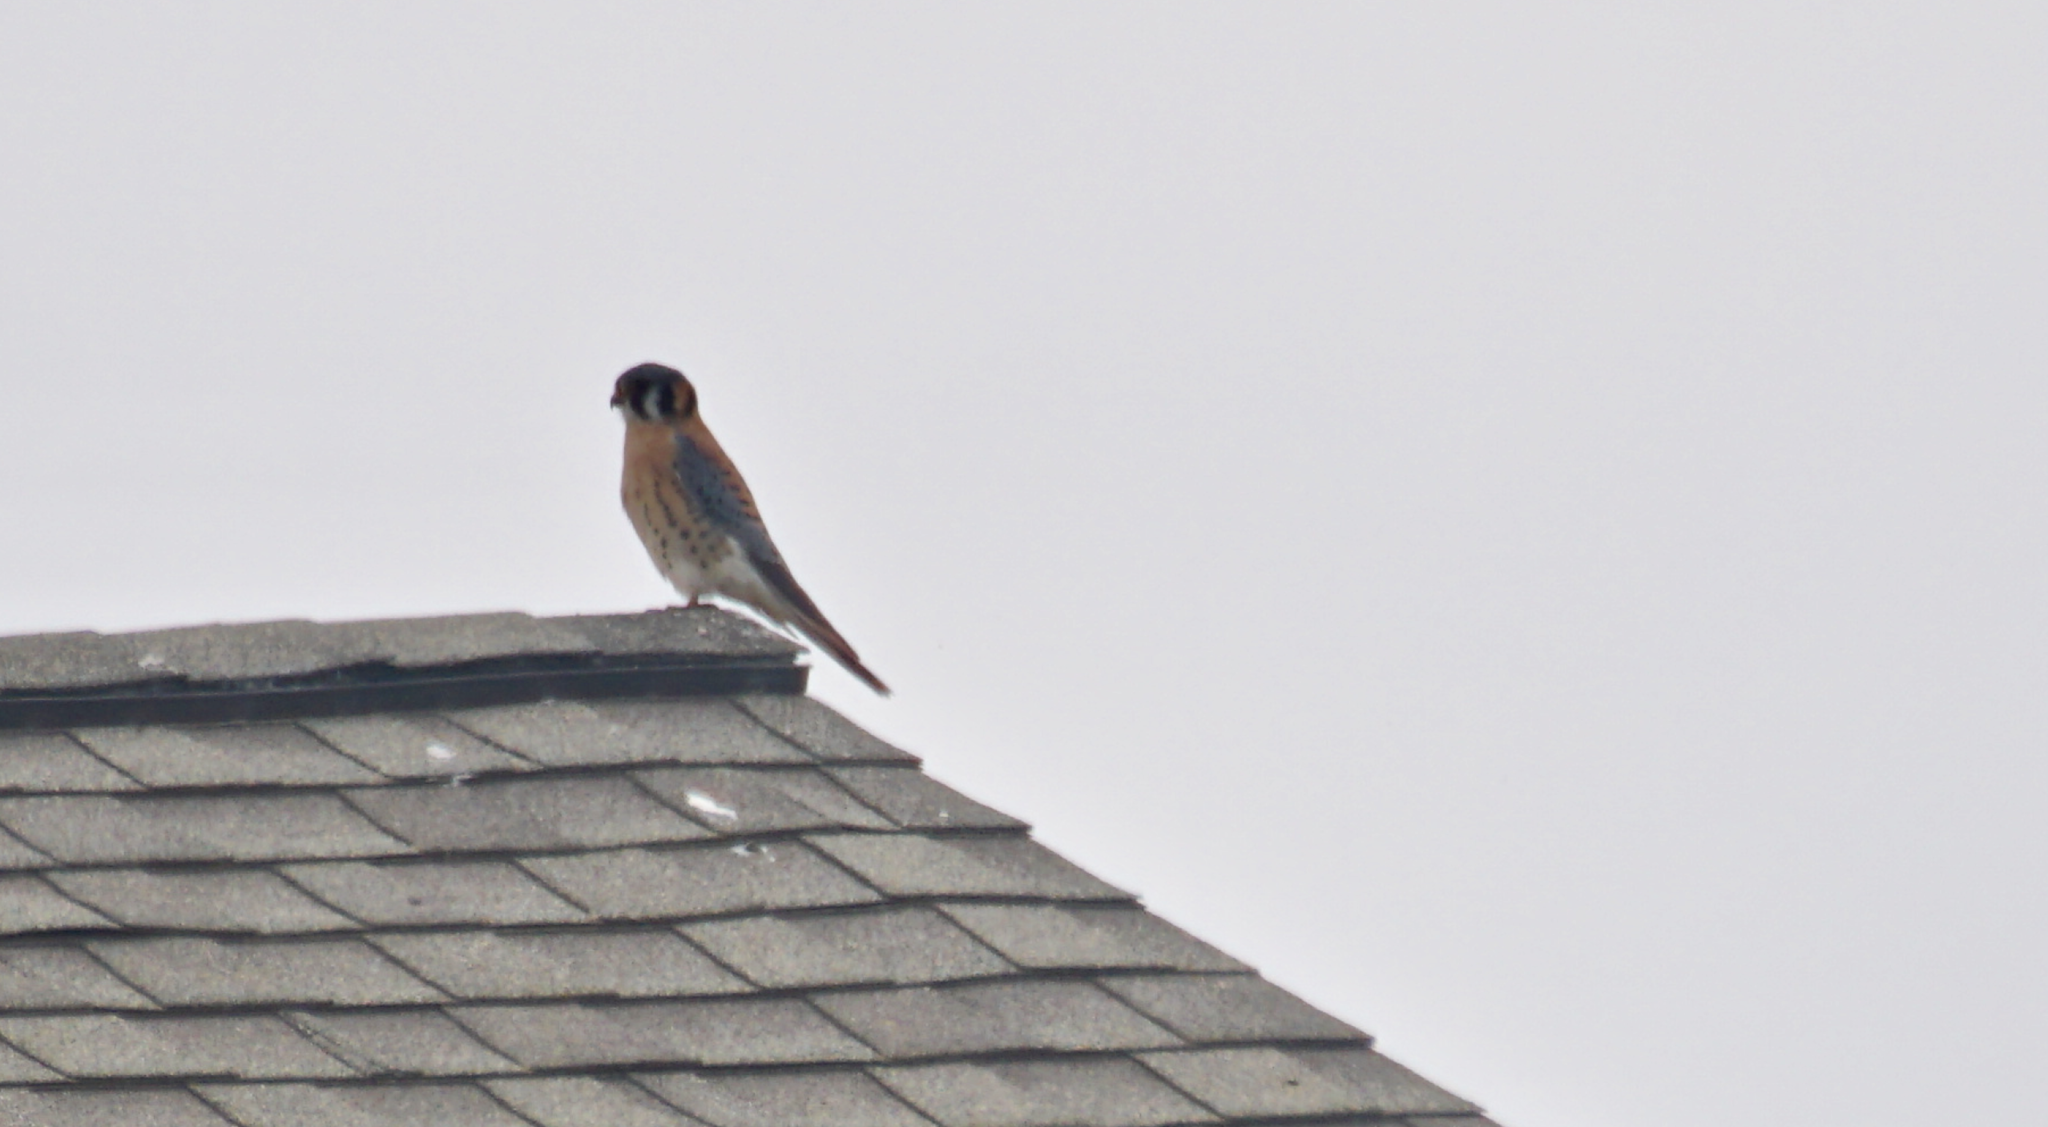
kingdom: Animalia
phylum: Chordata
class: Aves
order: Falconiformes
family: Falconidae
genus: Falco
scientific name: Falco sparverius
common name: American kestrel
